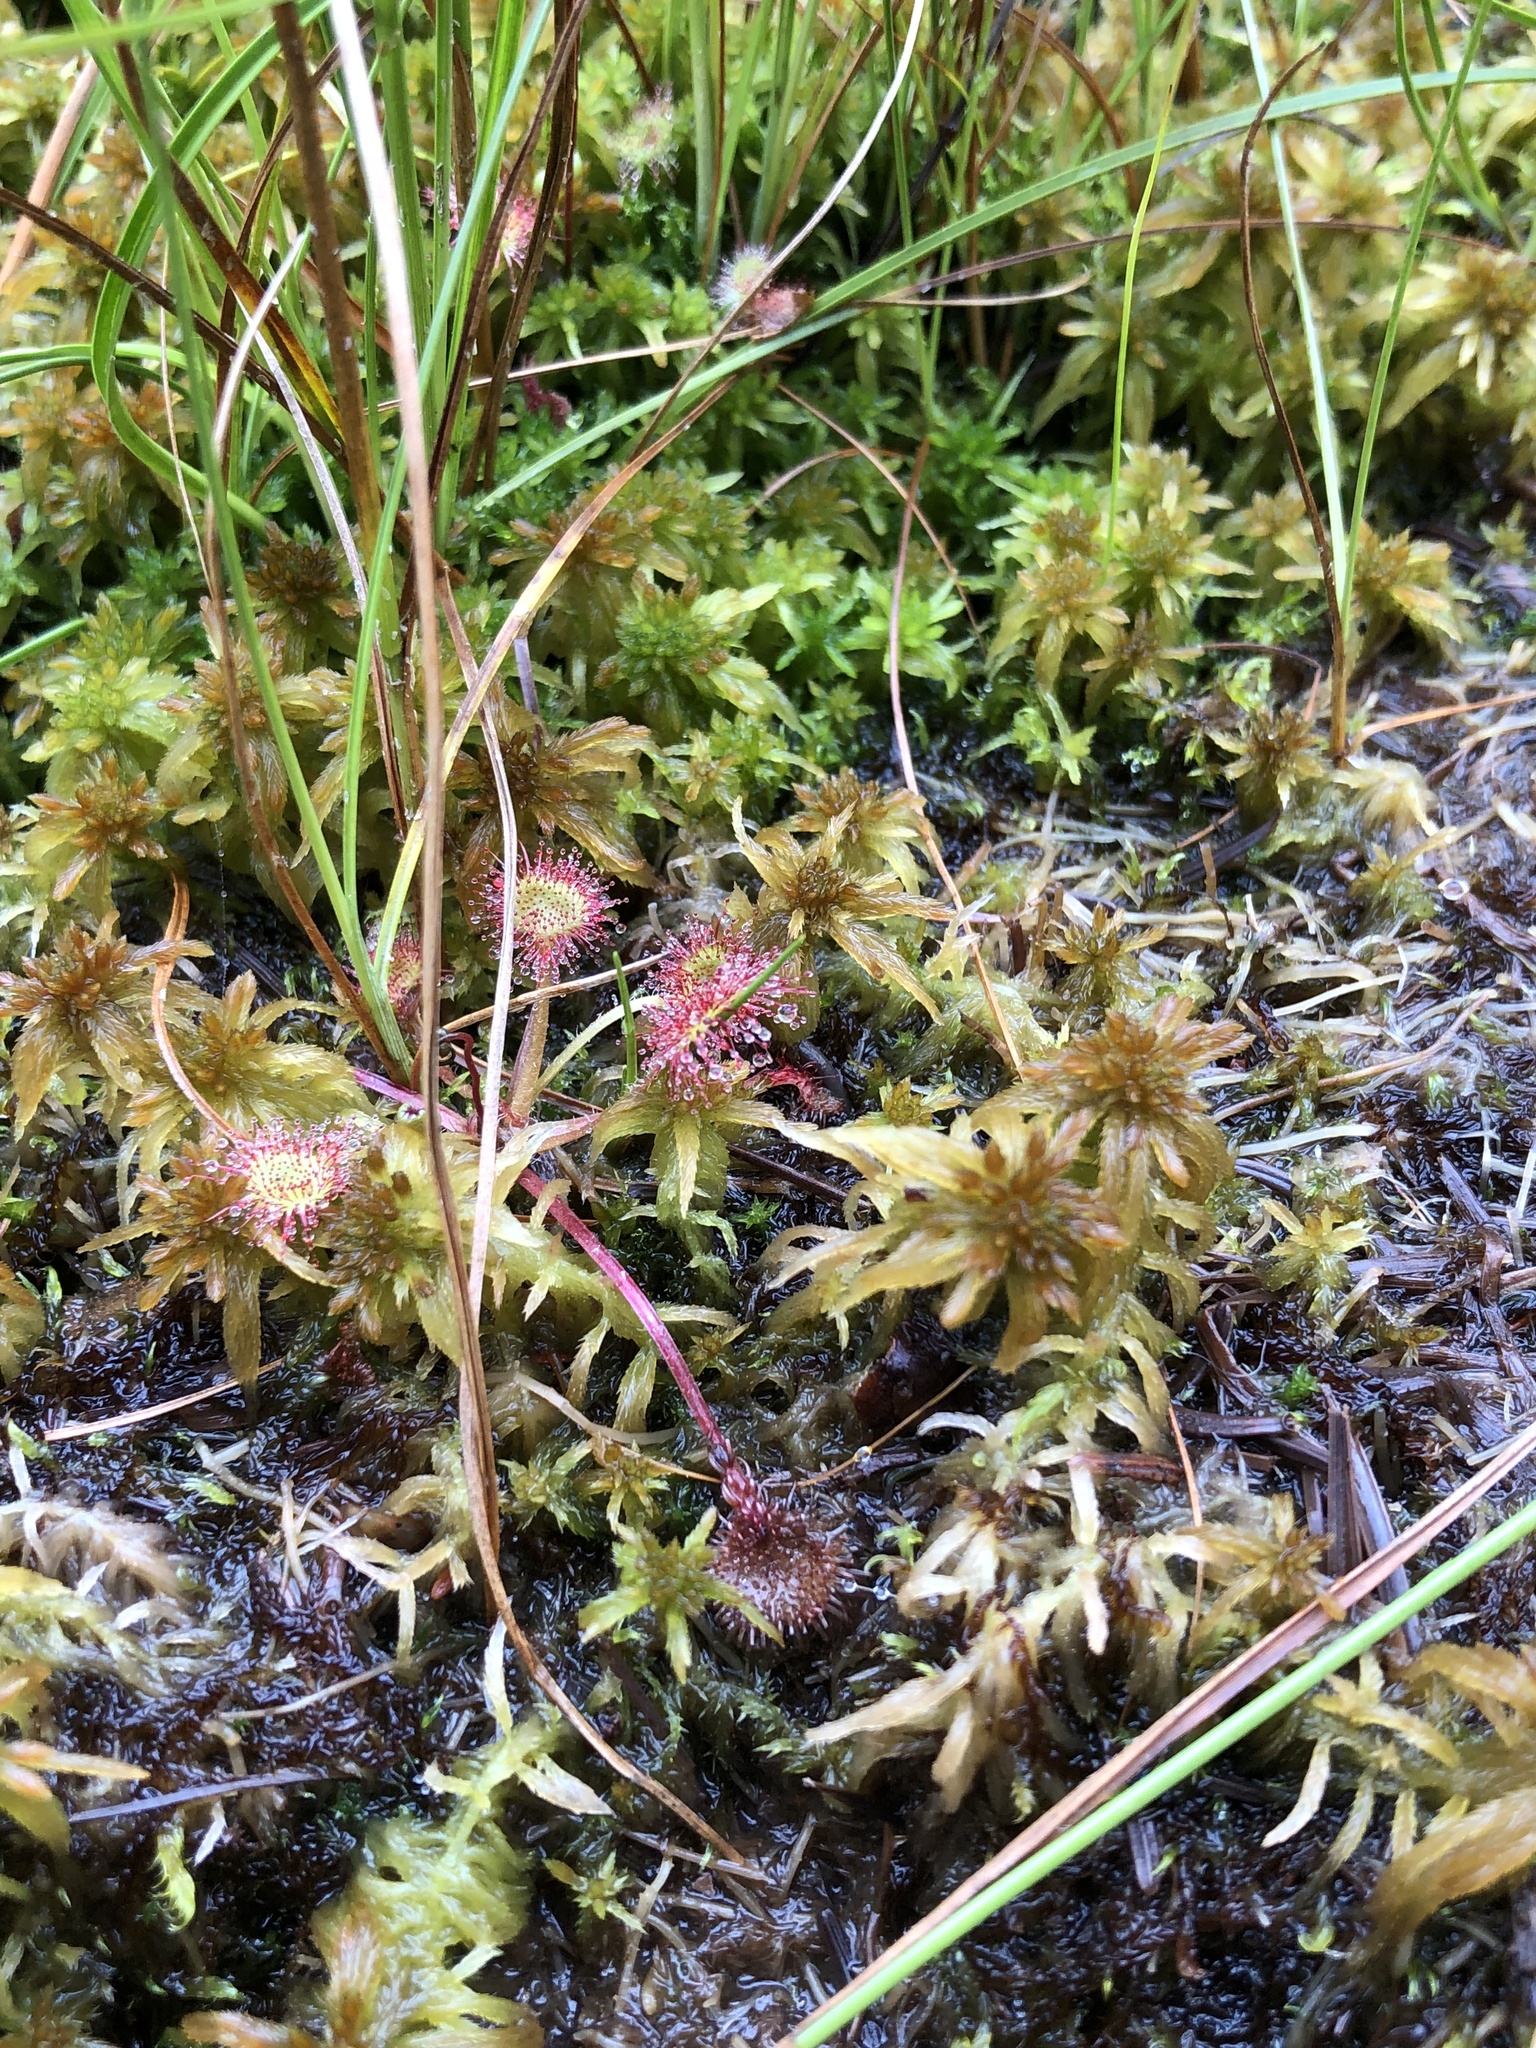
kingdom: Plantae
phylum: Tracheophyta
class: Magnoliopsida
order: Caryophyllales
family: Droseraceae
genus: Drosera
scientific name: Drosera rotundifolia
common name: Round-leaved sundew
